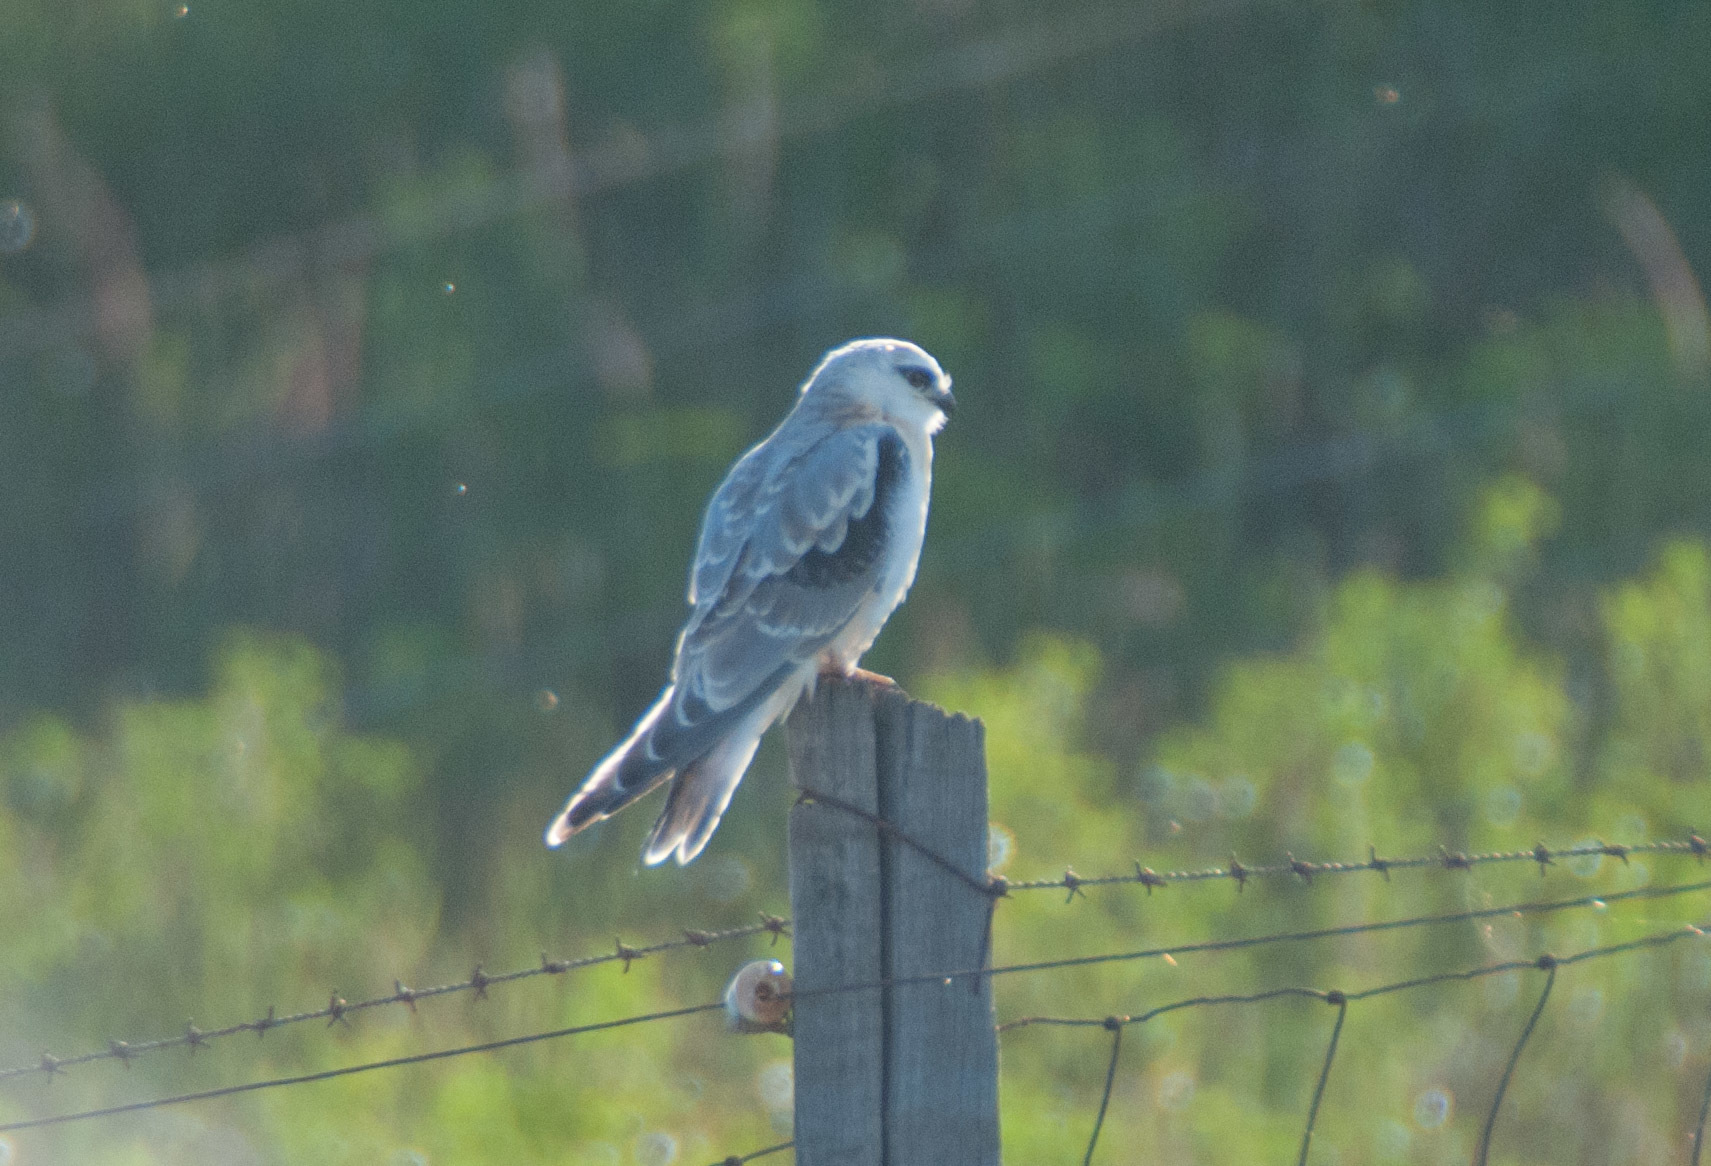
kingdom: Animalia
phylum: Chordata
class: Aves
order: Accipitriformes
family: Accipitridae
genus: Elanus
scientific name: Elanus axillaris
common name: Black-shouldered kite
